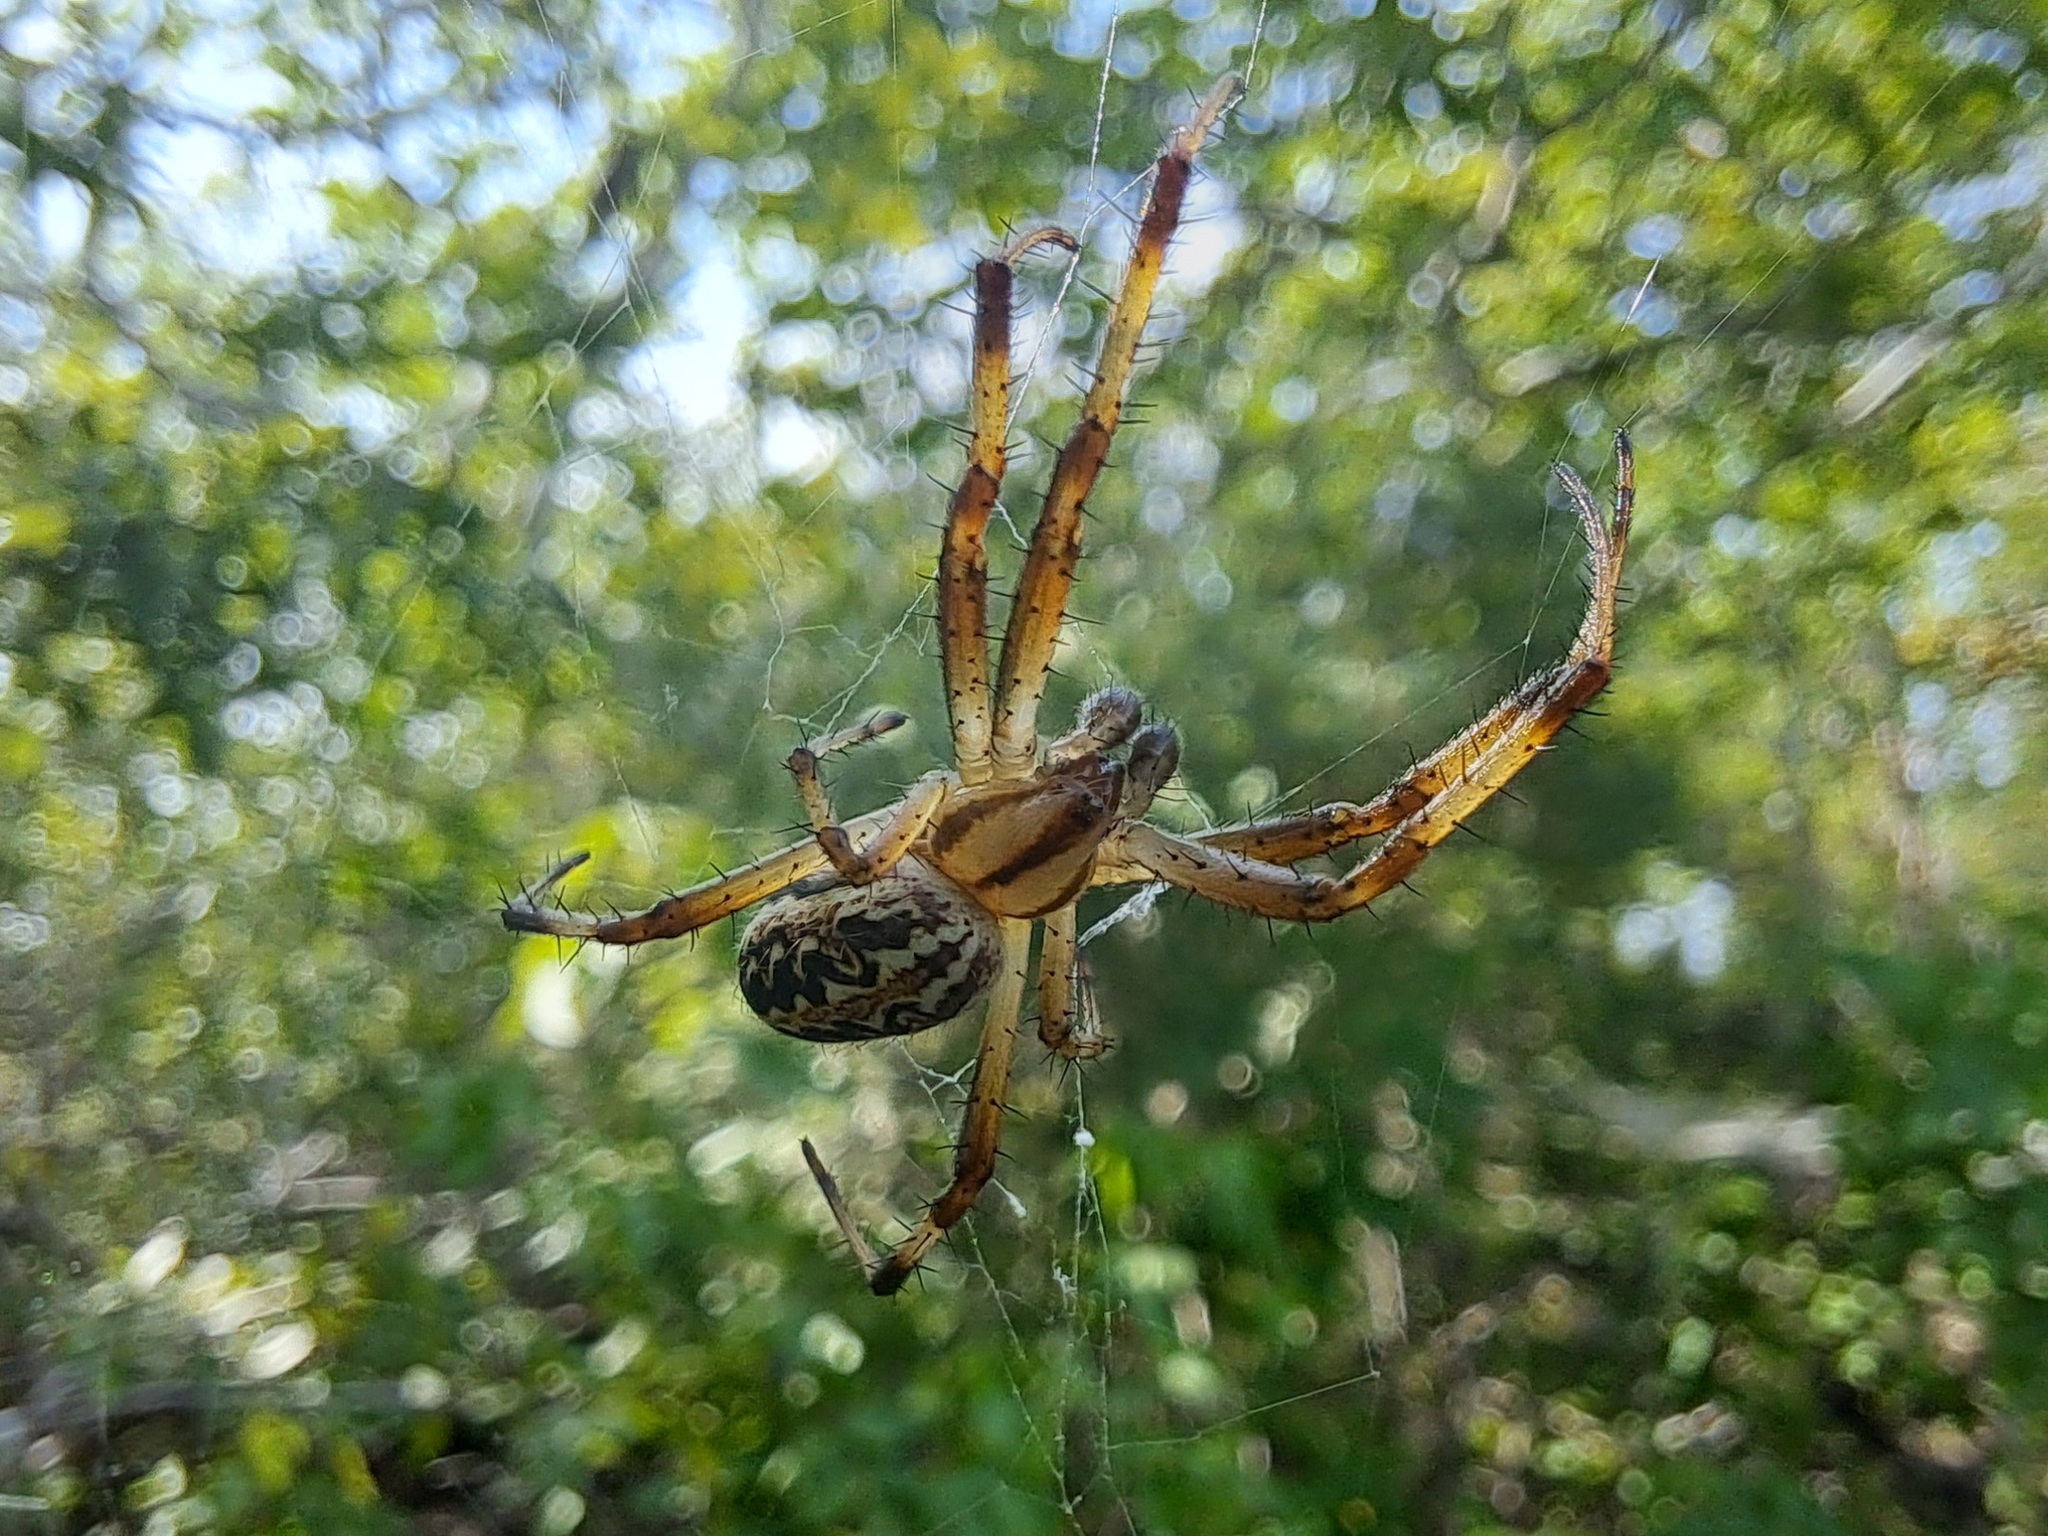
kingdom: Animalia
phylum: Arthropoda
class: Arachnida
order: Araneae
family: Araneidae
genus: Neoscona
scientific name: Neoscona oaxacensis
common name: Orb weavers
